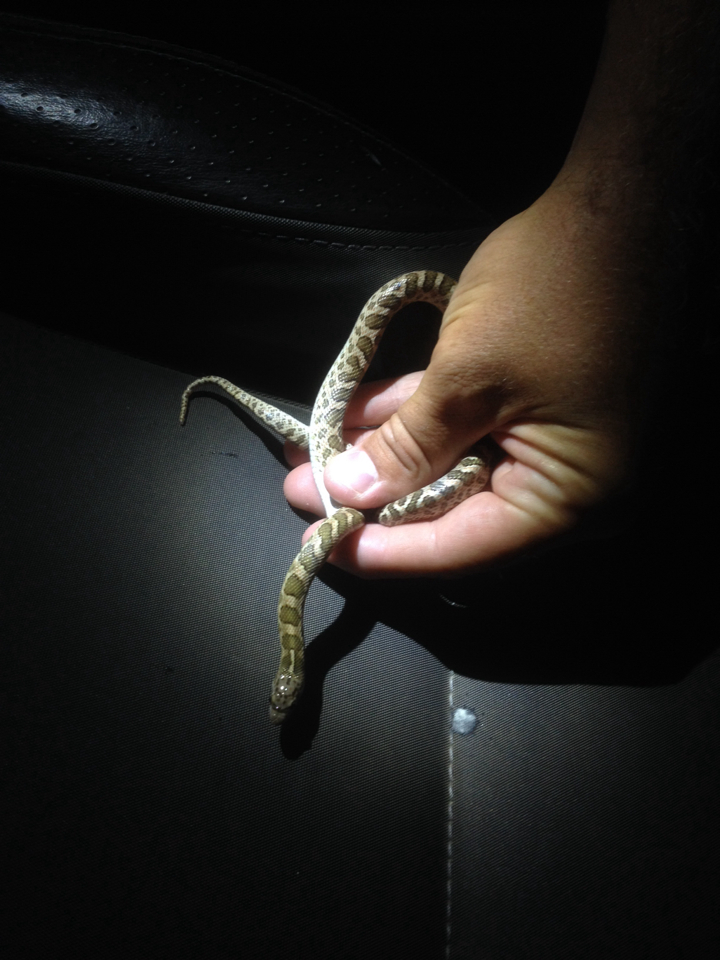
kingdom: Animalia
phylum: Chordata
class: Squamata
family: Colubridae
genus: Arizona
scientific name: Arizona elegans
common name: Glossy snake
